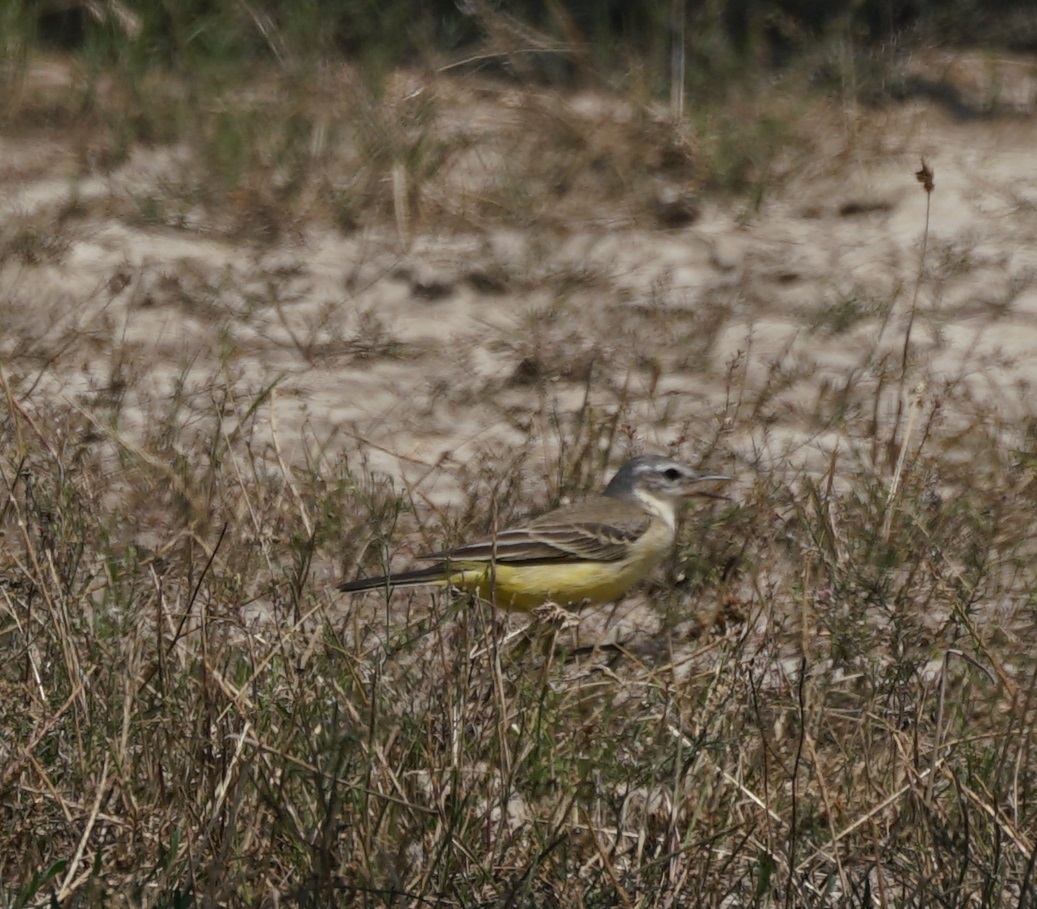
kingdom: Animalia
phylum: Chordata
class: Aves
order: Passeriformes
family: Motacillidae
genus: Motacilla
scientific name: Motacilla flava
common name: Western yellow wagtail
